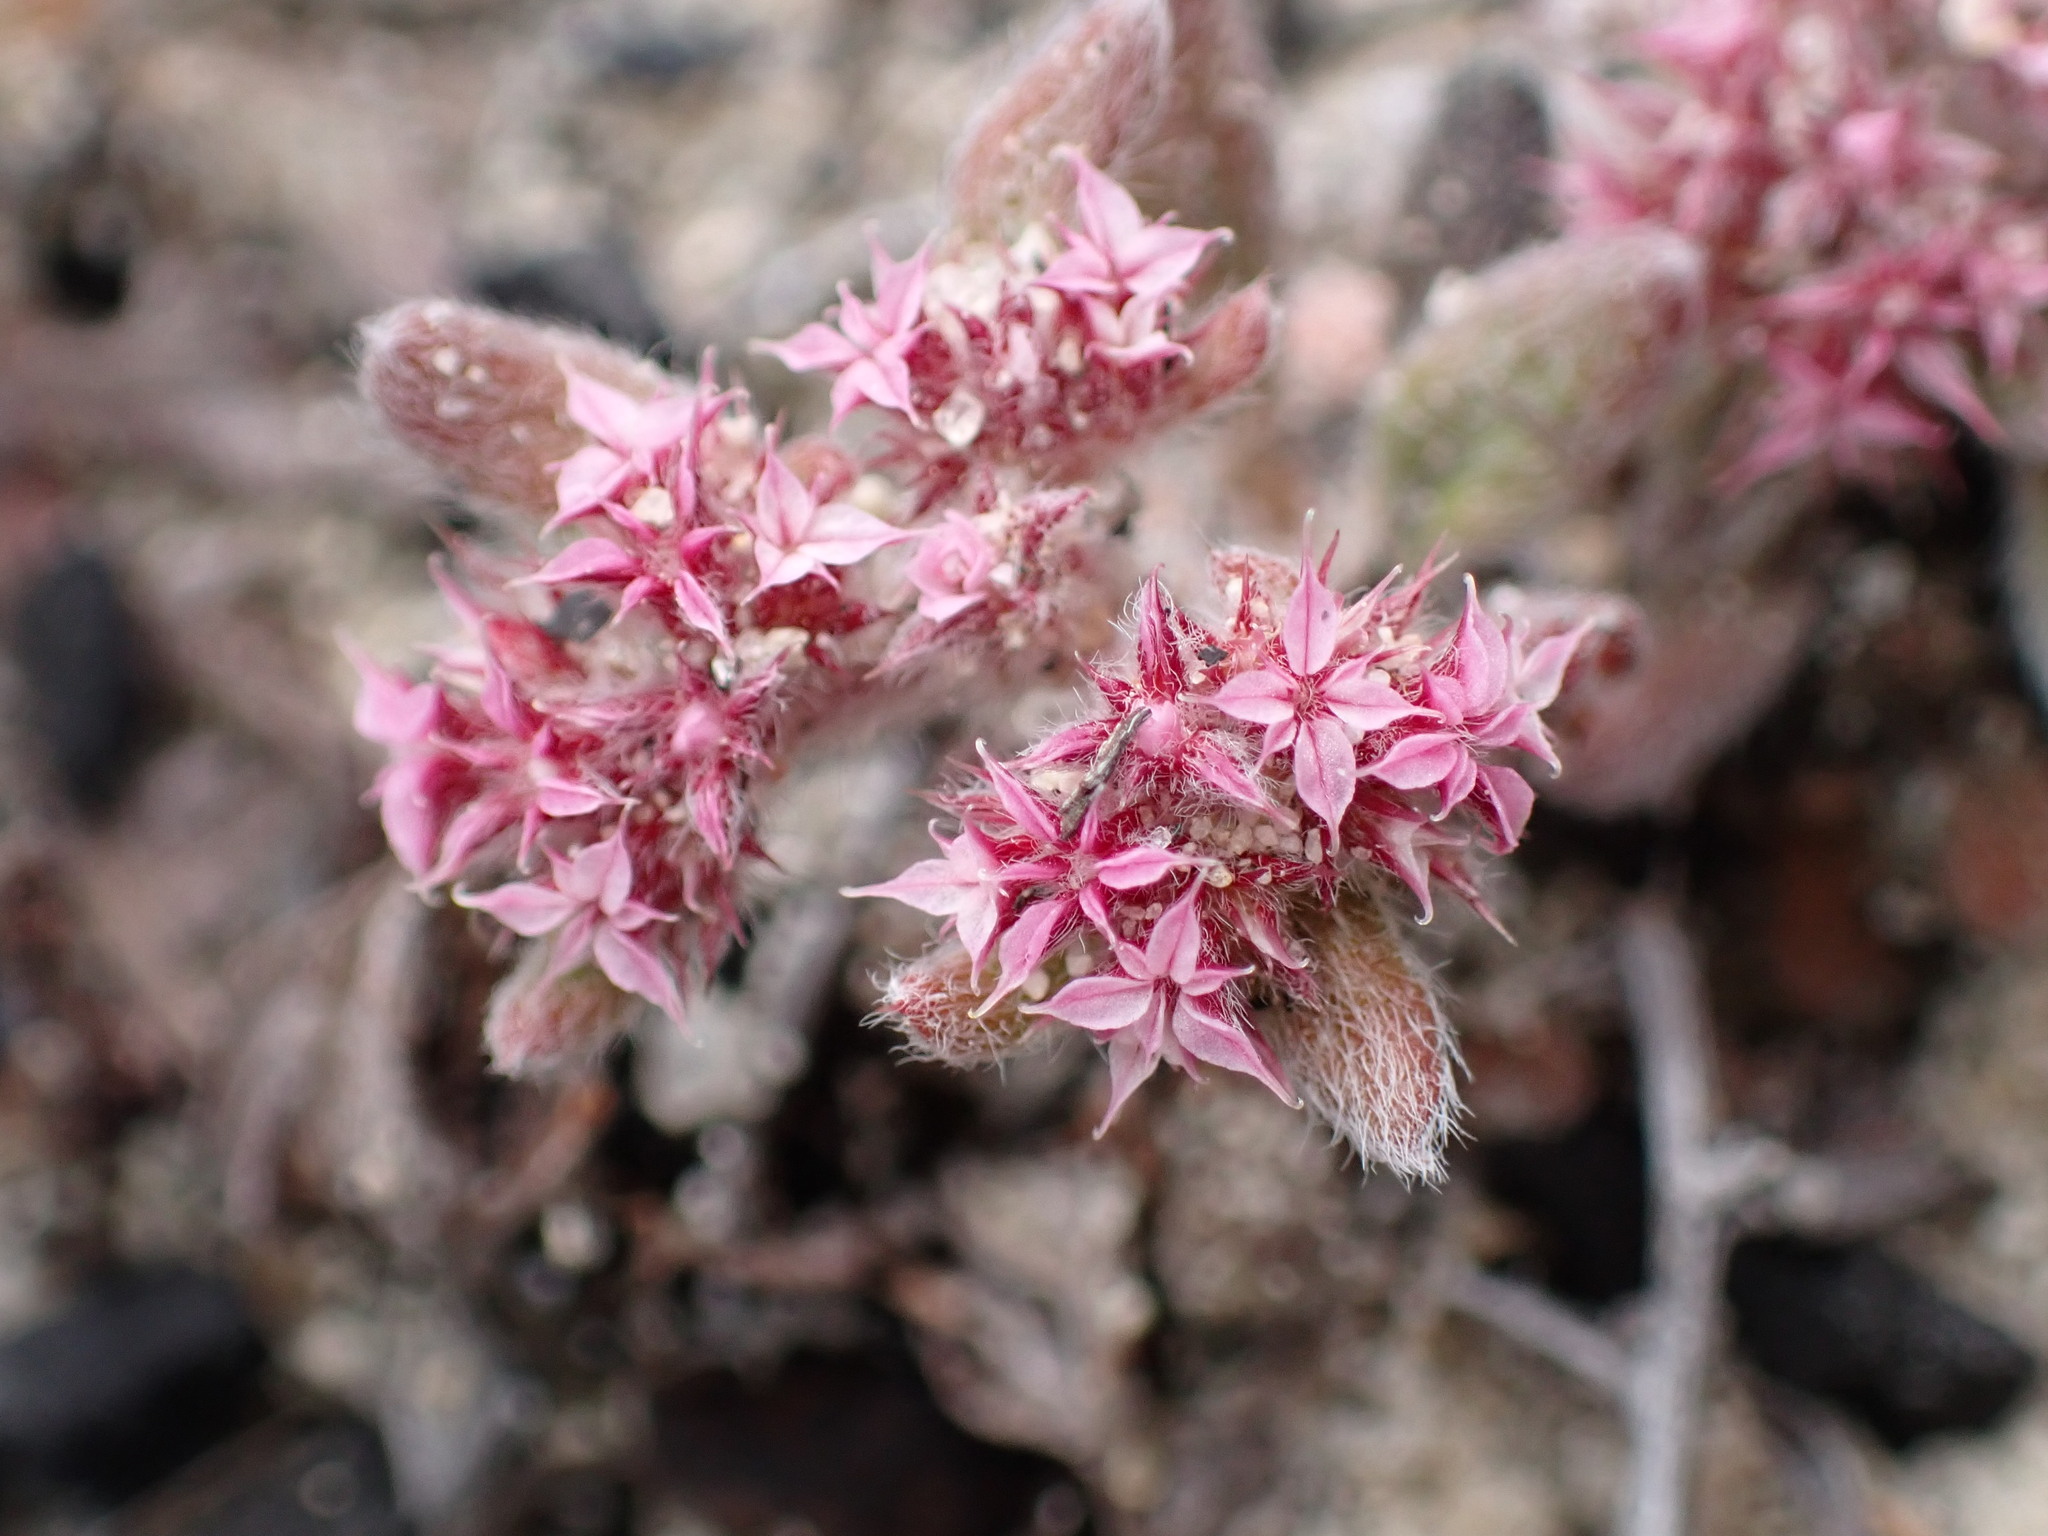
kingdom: Plantae
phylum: Tracheophyta
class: Magnoliopsida
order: Caryophyllales
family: Polygonaceae
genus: Chorizanthe
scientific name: Chorizanthe pungens
